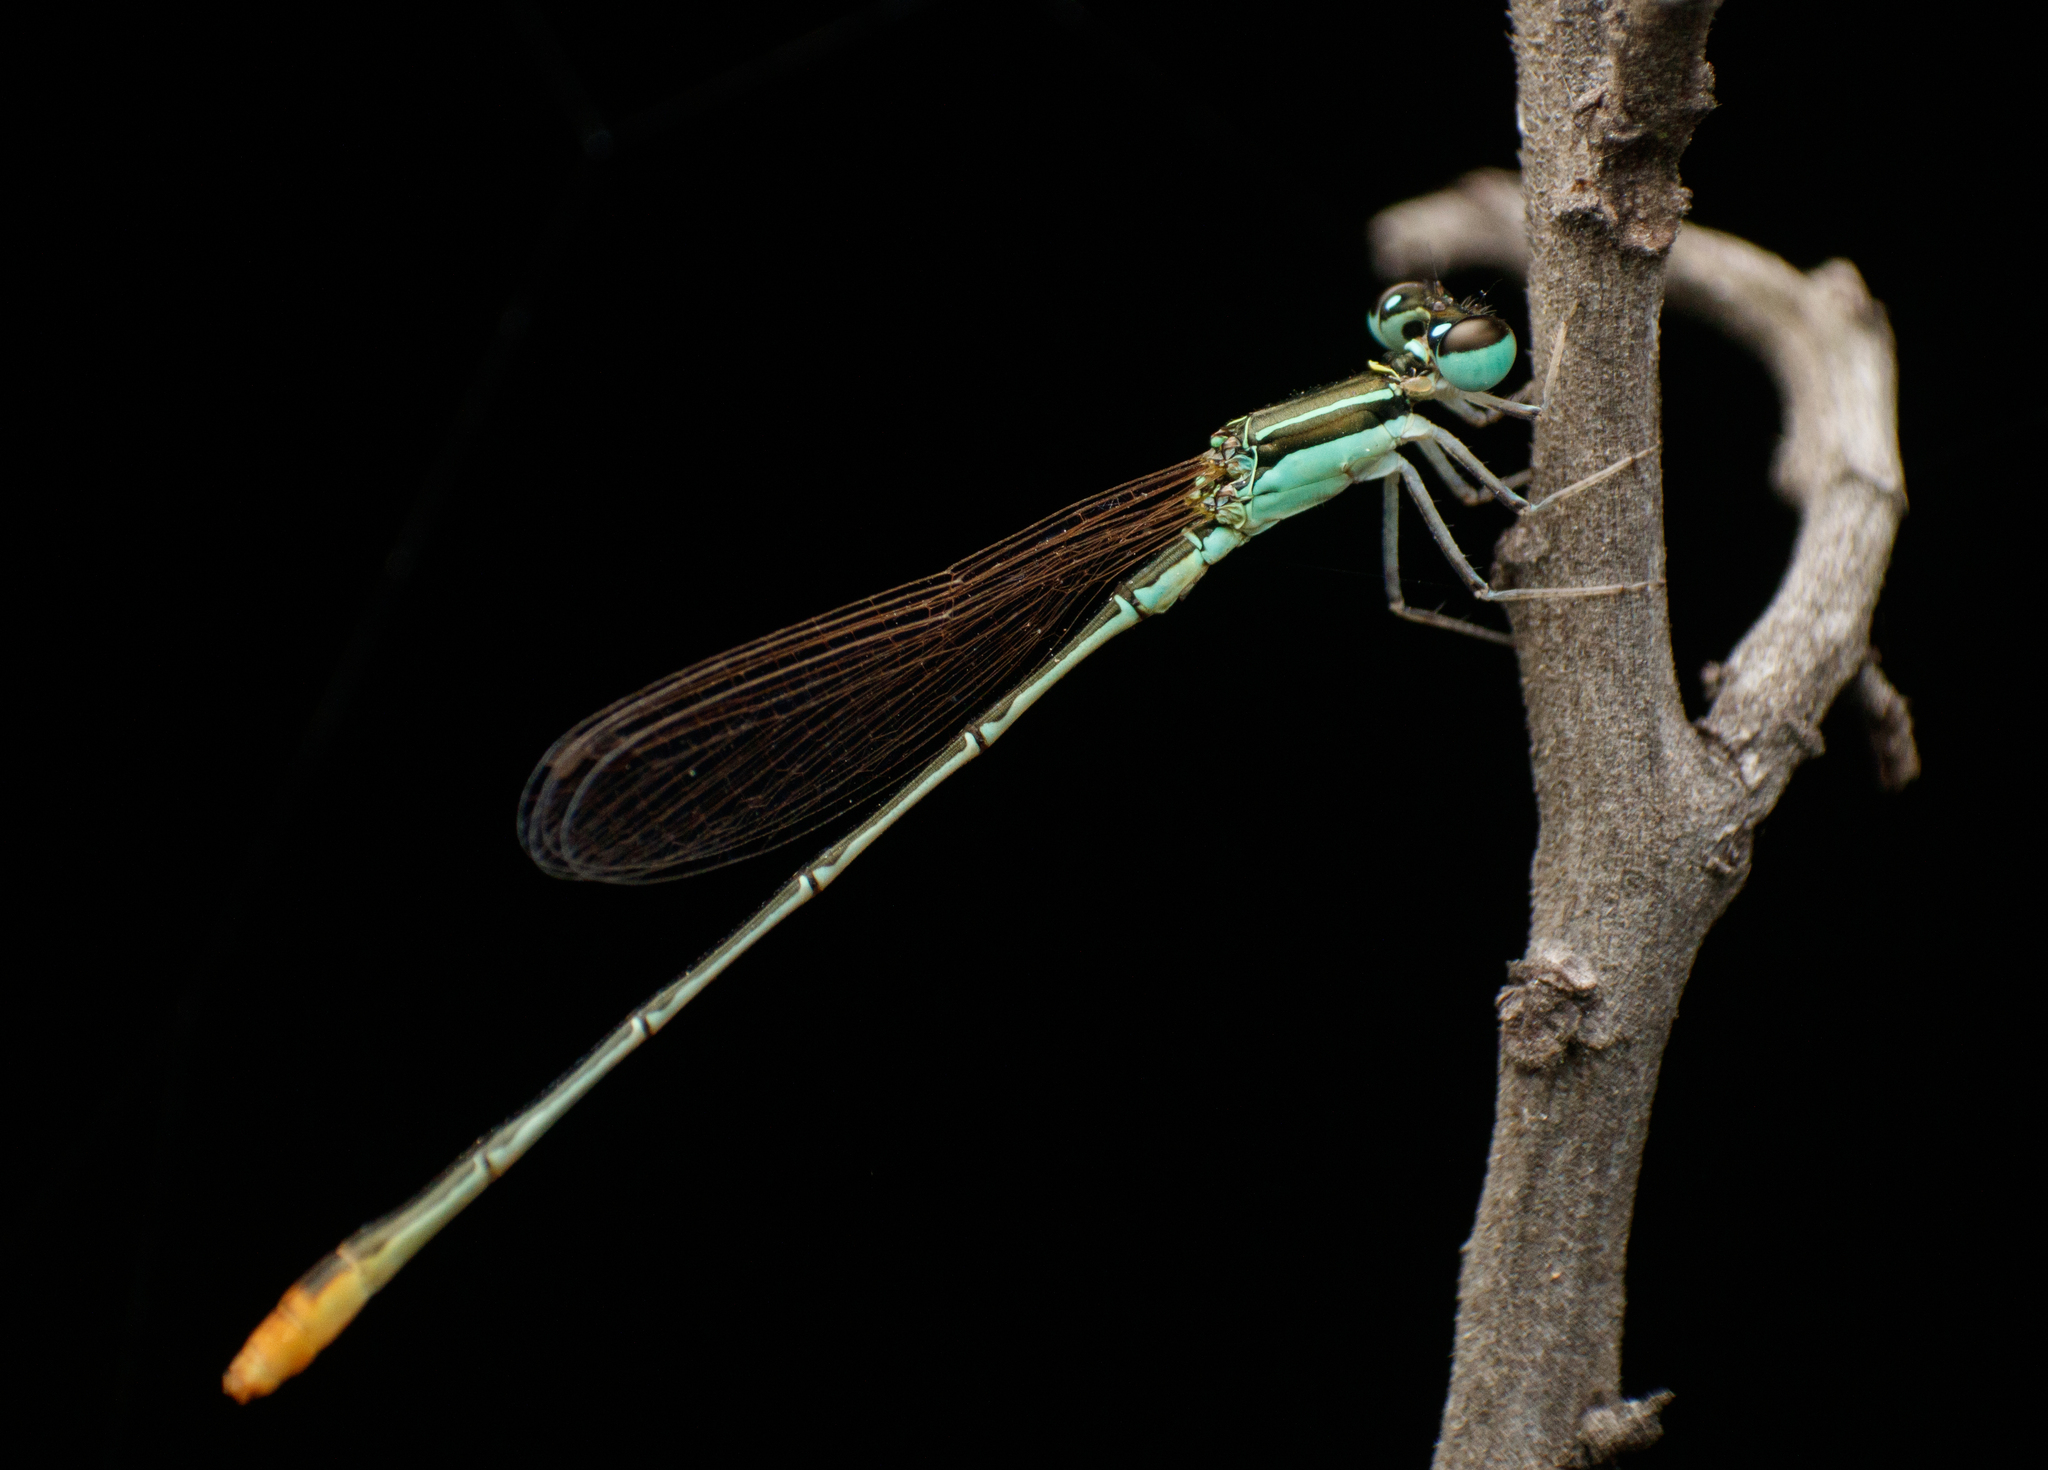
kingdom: Animalia
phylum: Arthropoda
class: Insecta
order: Odonata
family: Coenagrionidae
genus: Agriocnemis
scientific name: Agriocnemis pygmaea
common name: Pygmy wisp
